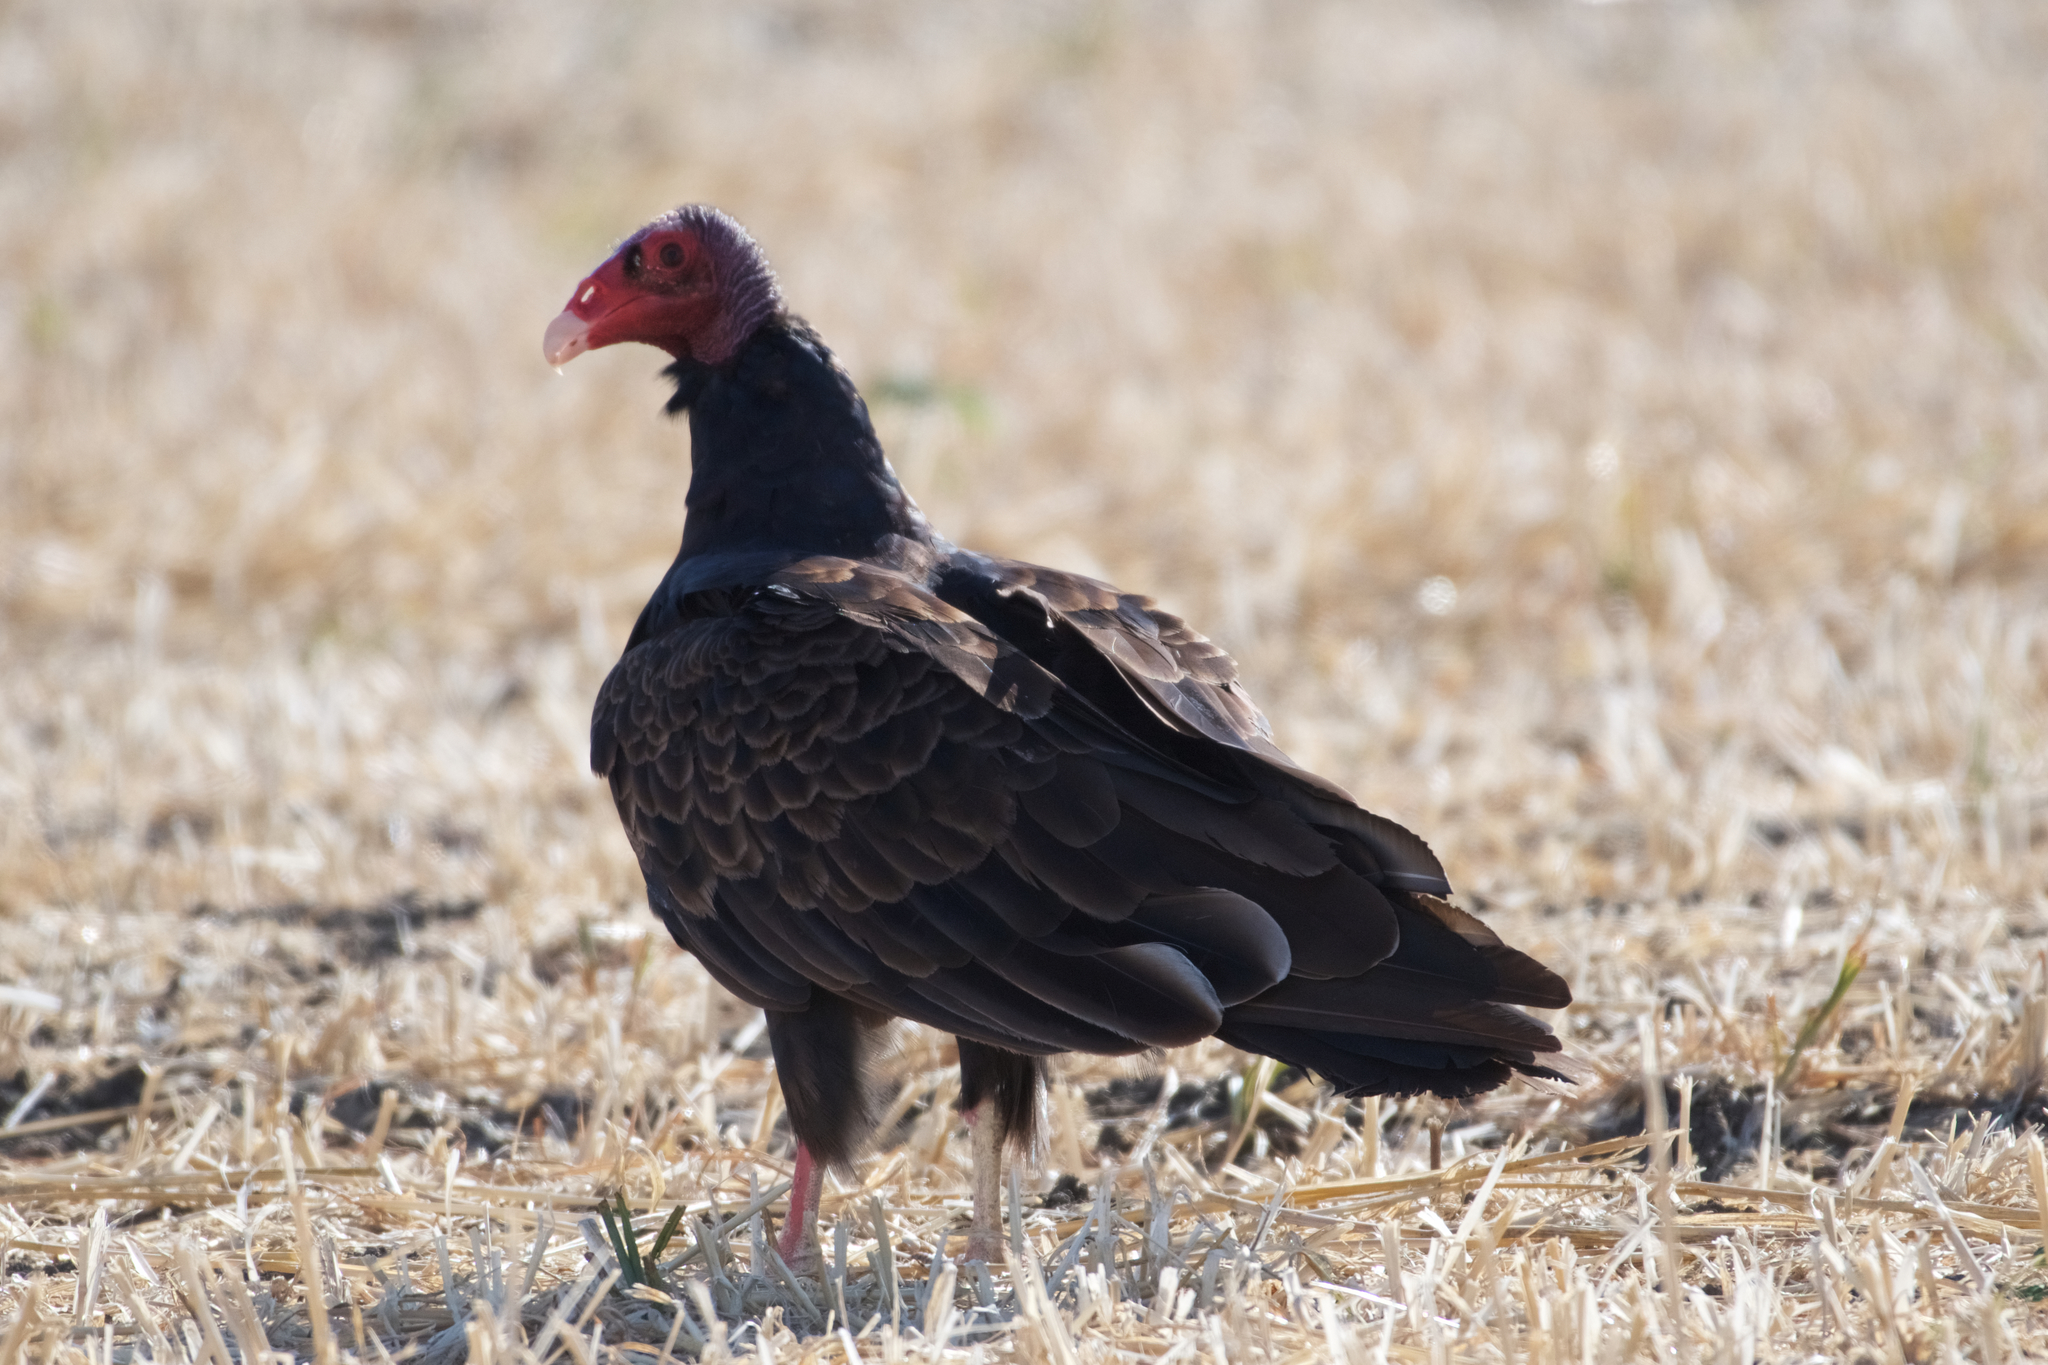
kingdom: Animalia
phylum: Chordata
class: Aves
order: Accipitriformes
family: Cathartidae
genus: Cathartes
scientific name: Cathartes aura
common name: Turkey vulture
